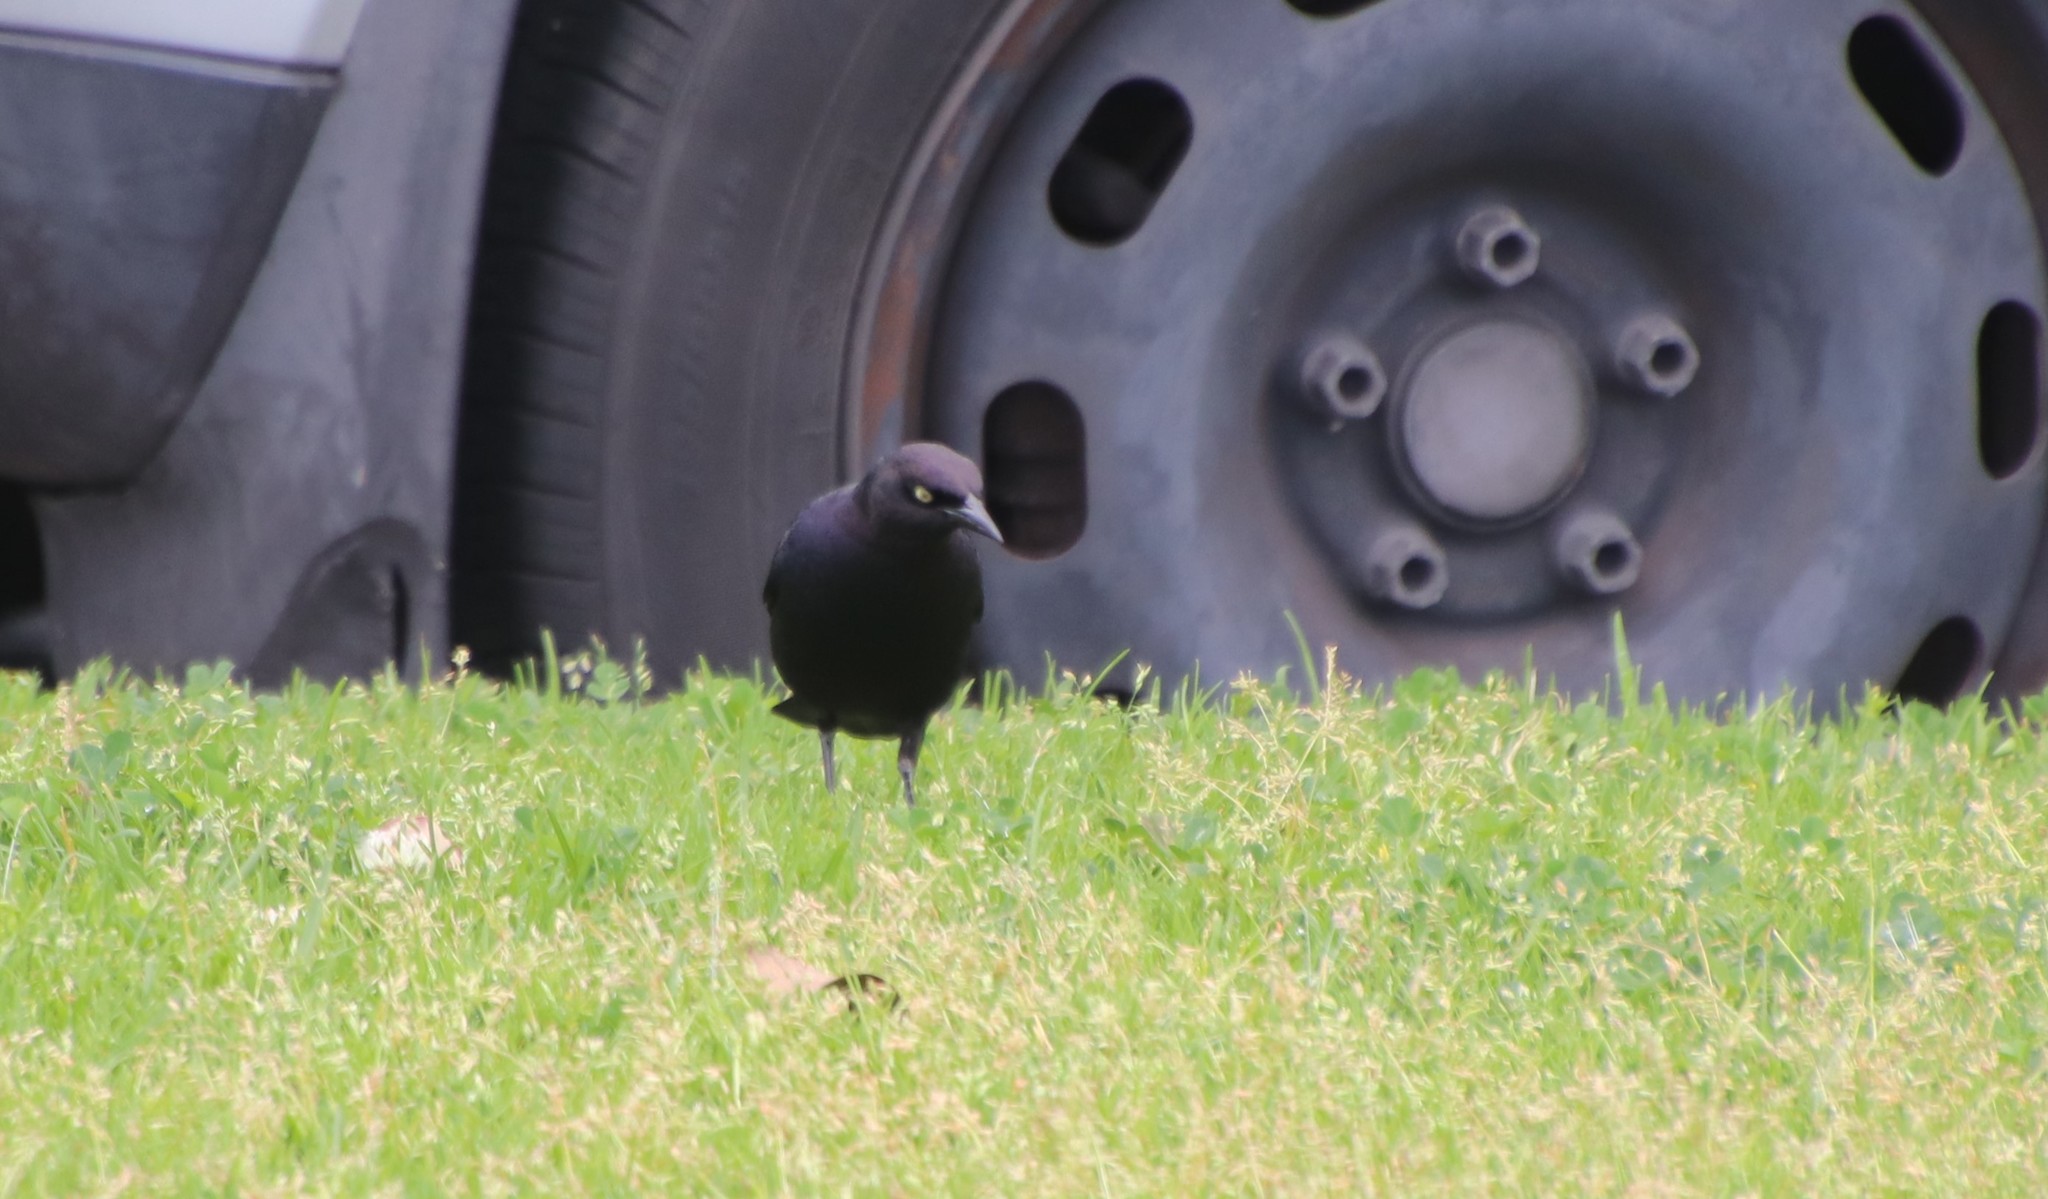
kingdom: Animalia
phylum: Chordata
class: Aves
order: Passeriformes
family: Icteridae
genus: Euphagus
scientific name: Euphagus cyanocephalus
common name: Brewer's blackbird
